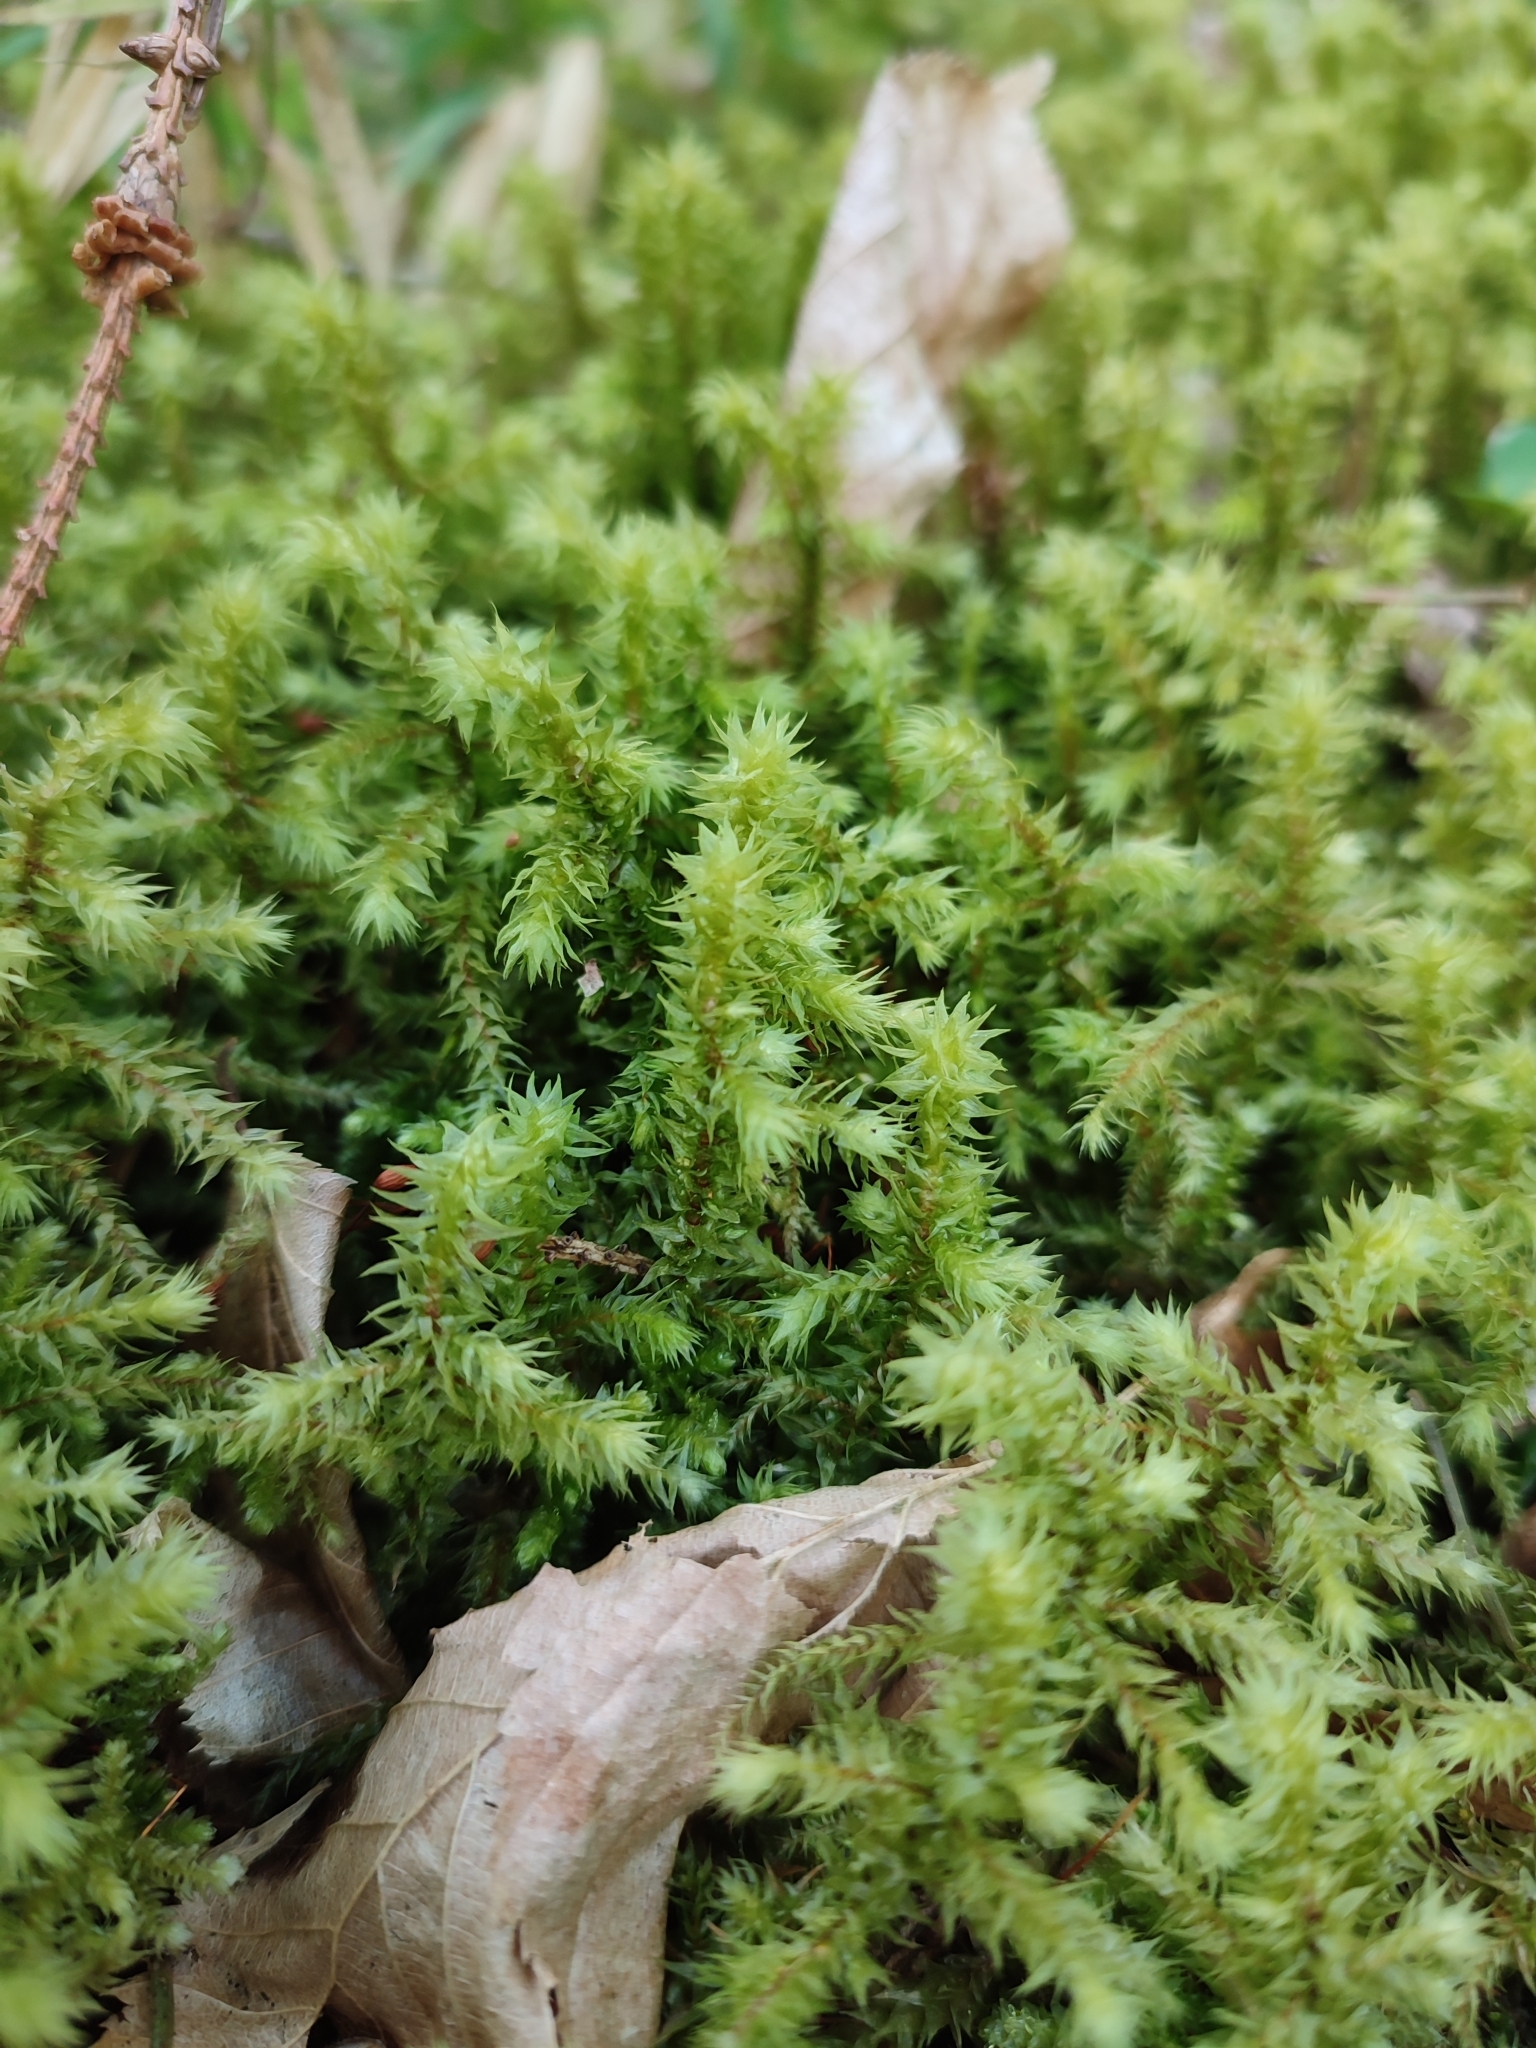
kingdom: Plantae
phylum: Bryophyta
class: Bryopsida
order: Hypnales
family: Hylocomiaceae
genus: Hylocomiadelphus
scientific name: Hylocomiadelphus triquetrus
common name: Rough goose neck moss
